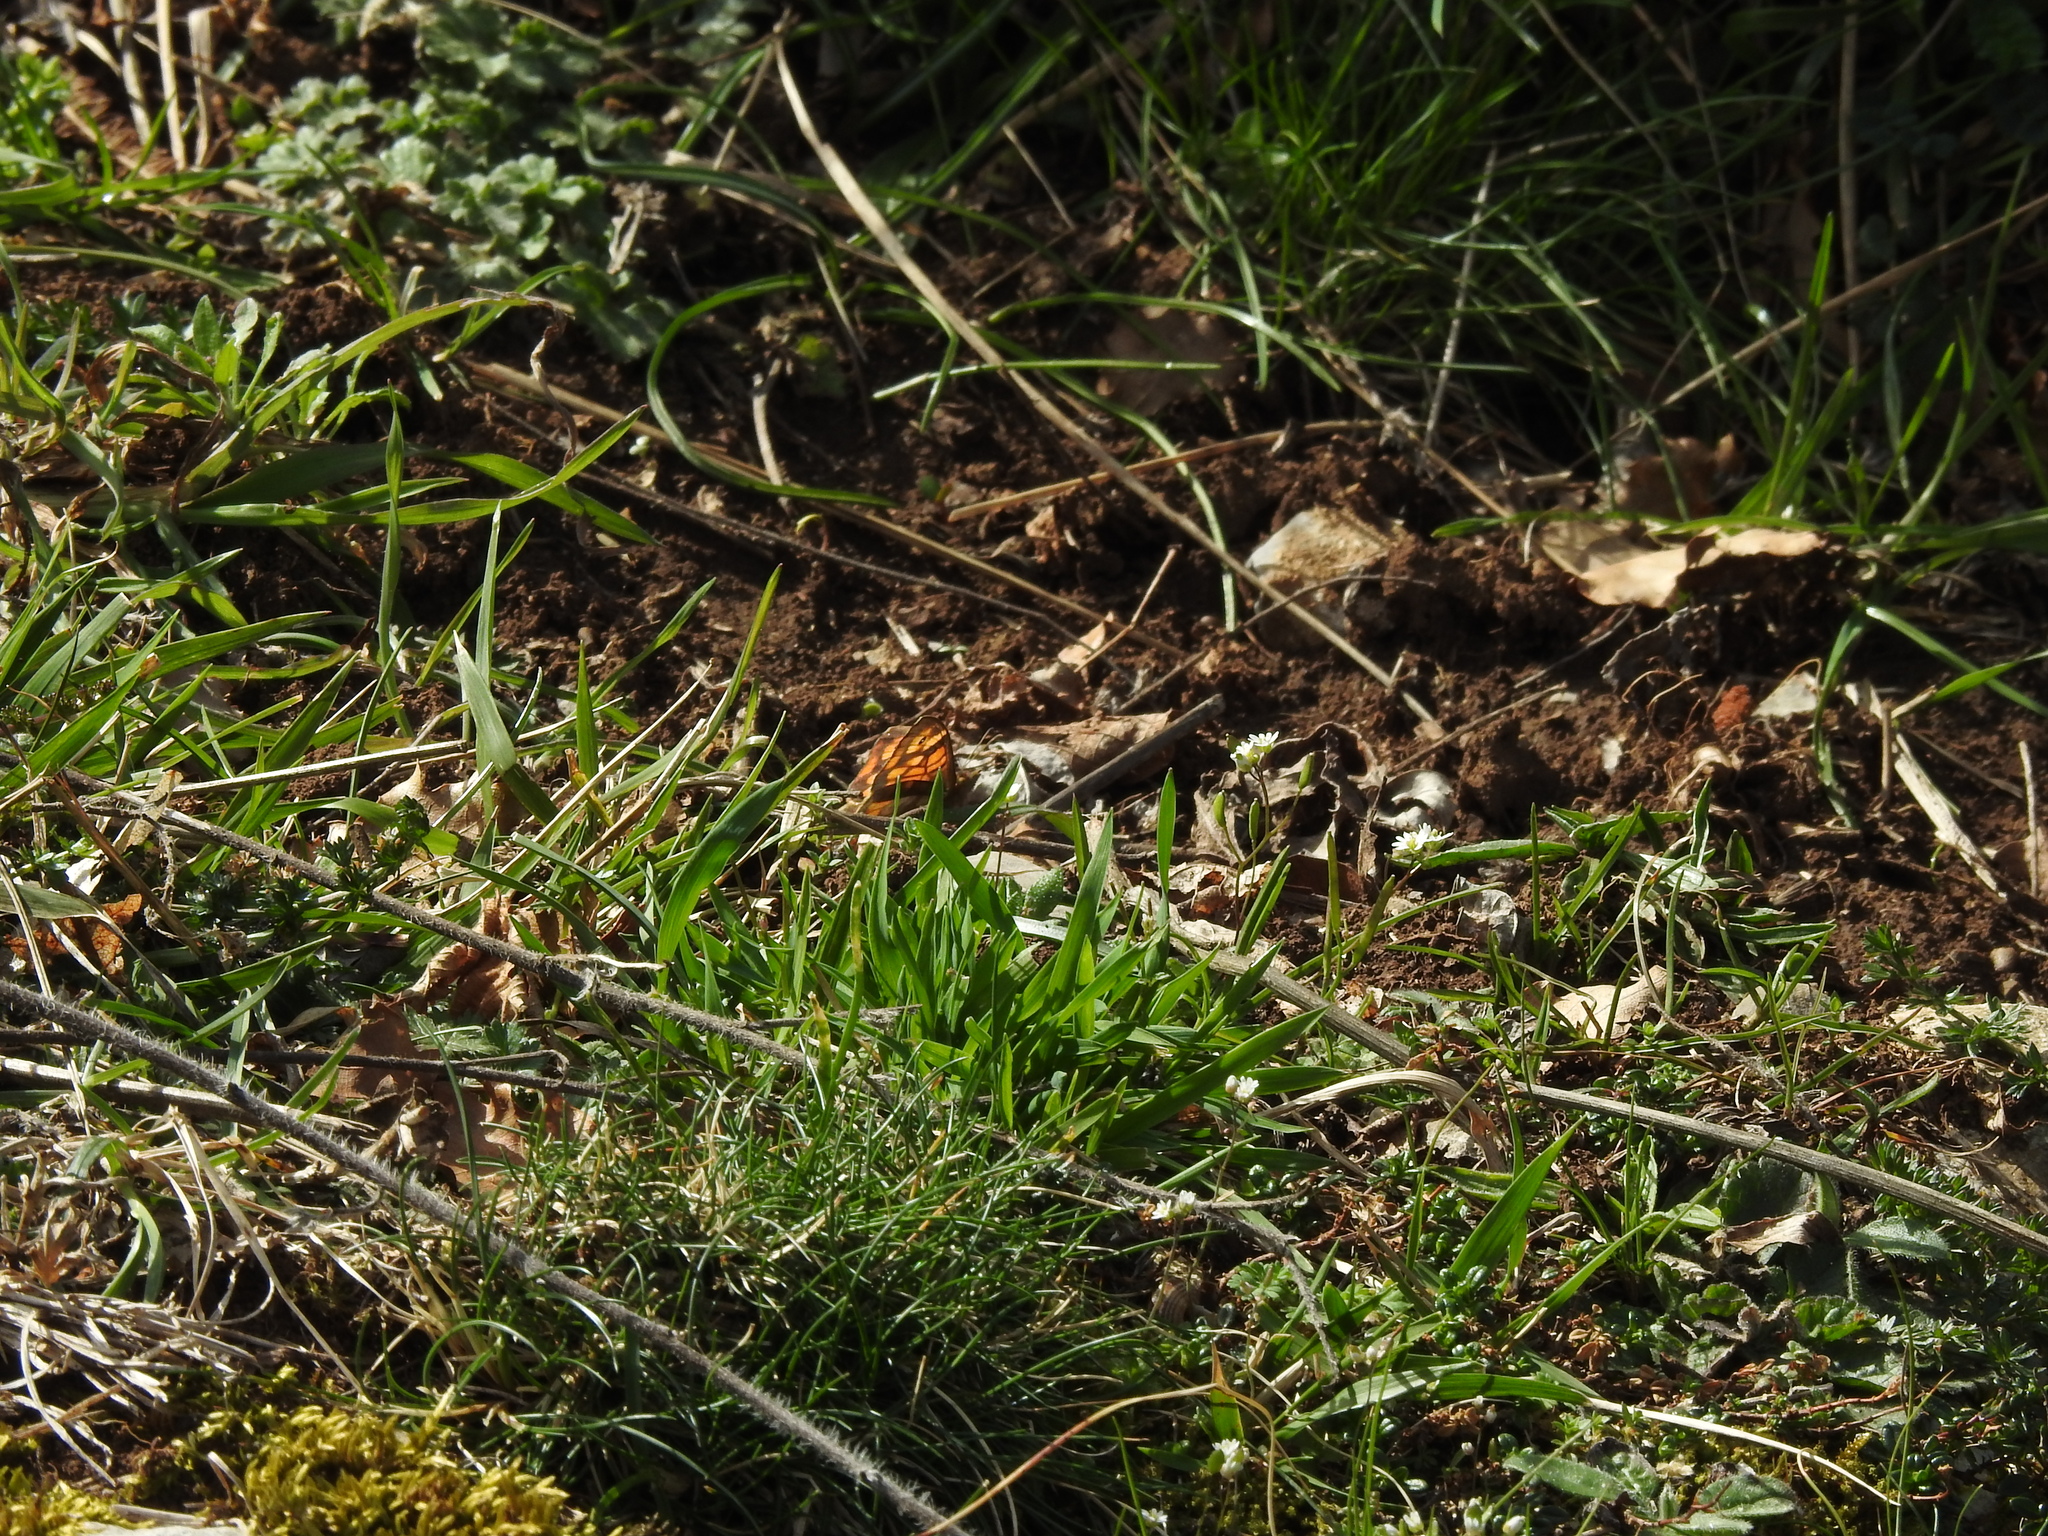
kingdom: Animalia
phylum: Arthropoda
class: Insecta
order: Lepidoptera
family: Nymphalidae
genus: Pararge
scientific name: Pararge aegeria
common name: Speckled wood
